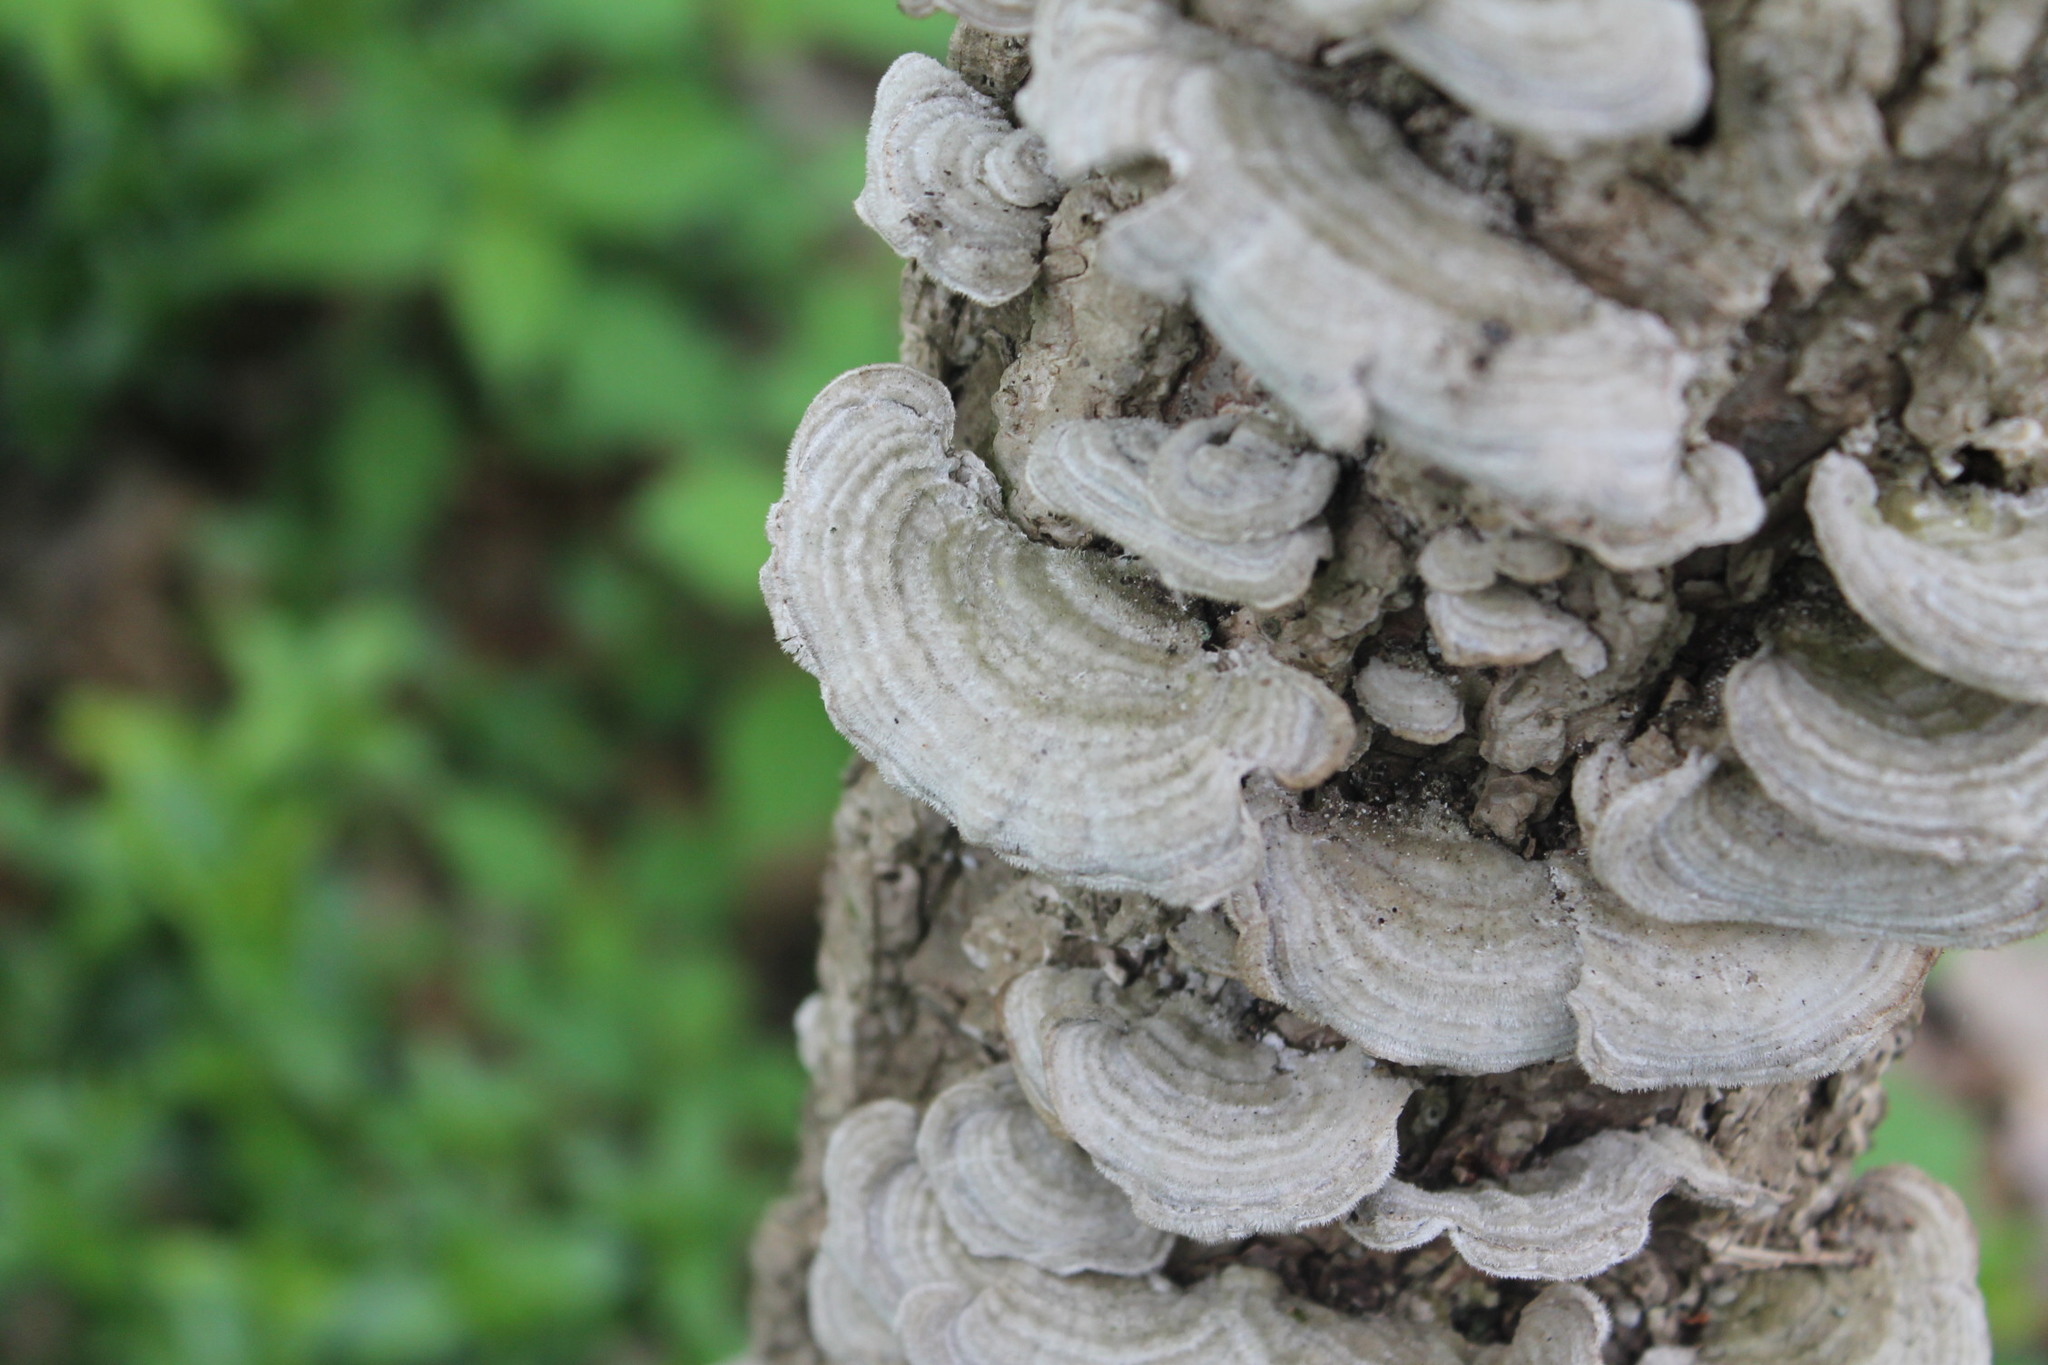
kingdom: Fungi
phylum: Basidiomycota
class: Agaricomycetes
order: Polyporales
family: Cerrenaceae
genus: Cerrena
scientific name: Cerrena unicolor
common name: Mossy maze polypore
